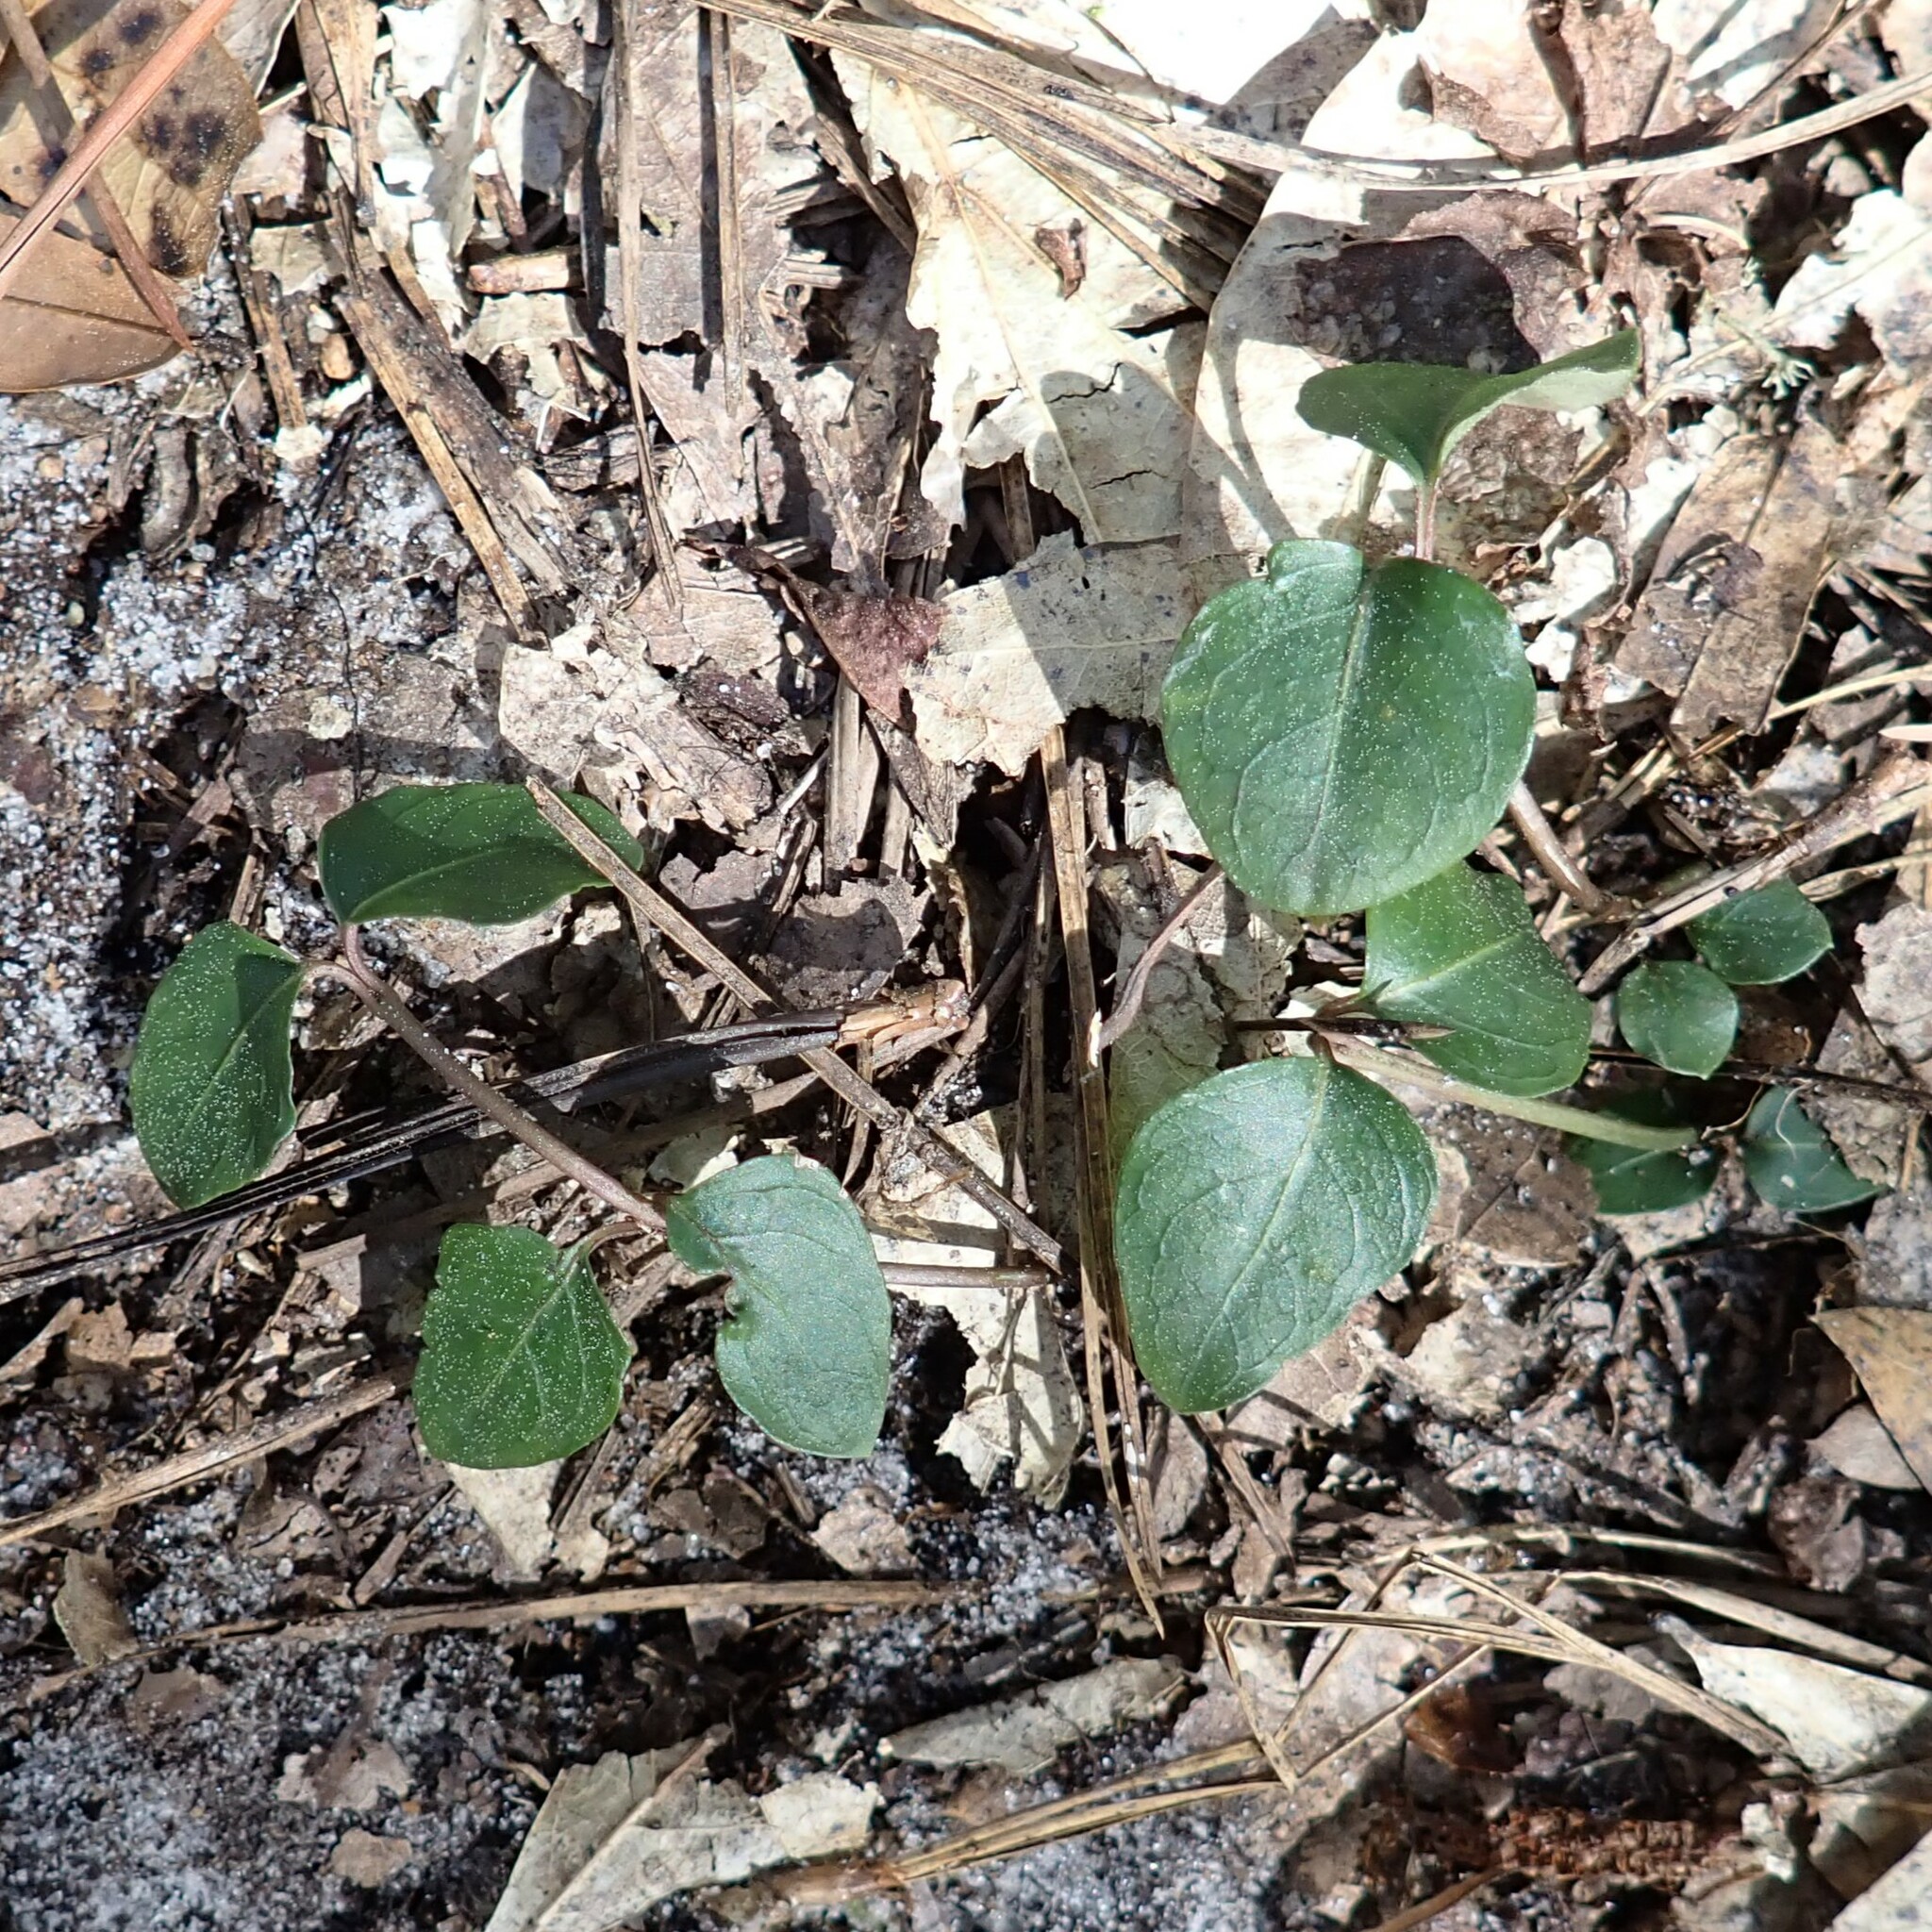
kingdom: Plantae
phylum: Tracheophyta
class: Magnoliopsida
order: Gentianales
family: Rubiaceae
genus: Mitchella
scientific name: Mitchella repens
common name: Partridge-berry
